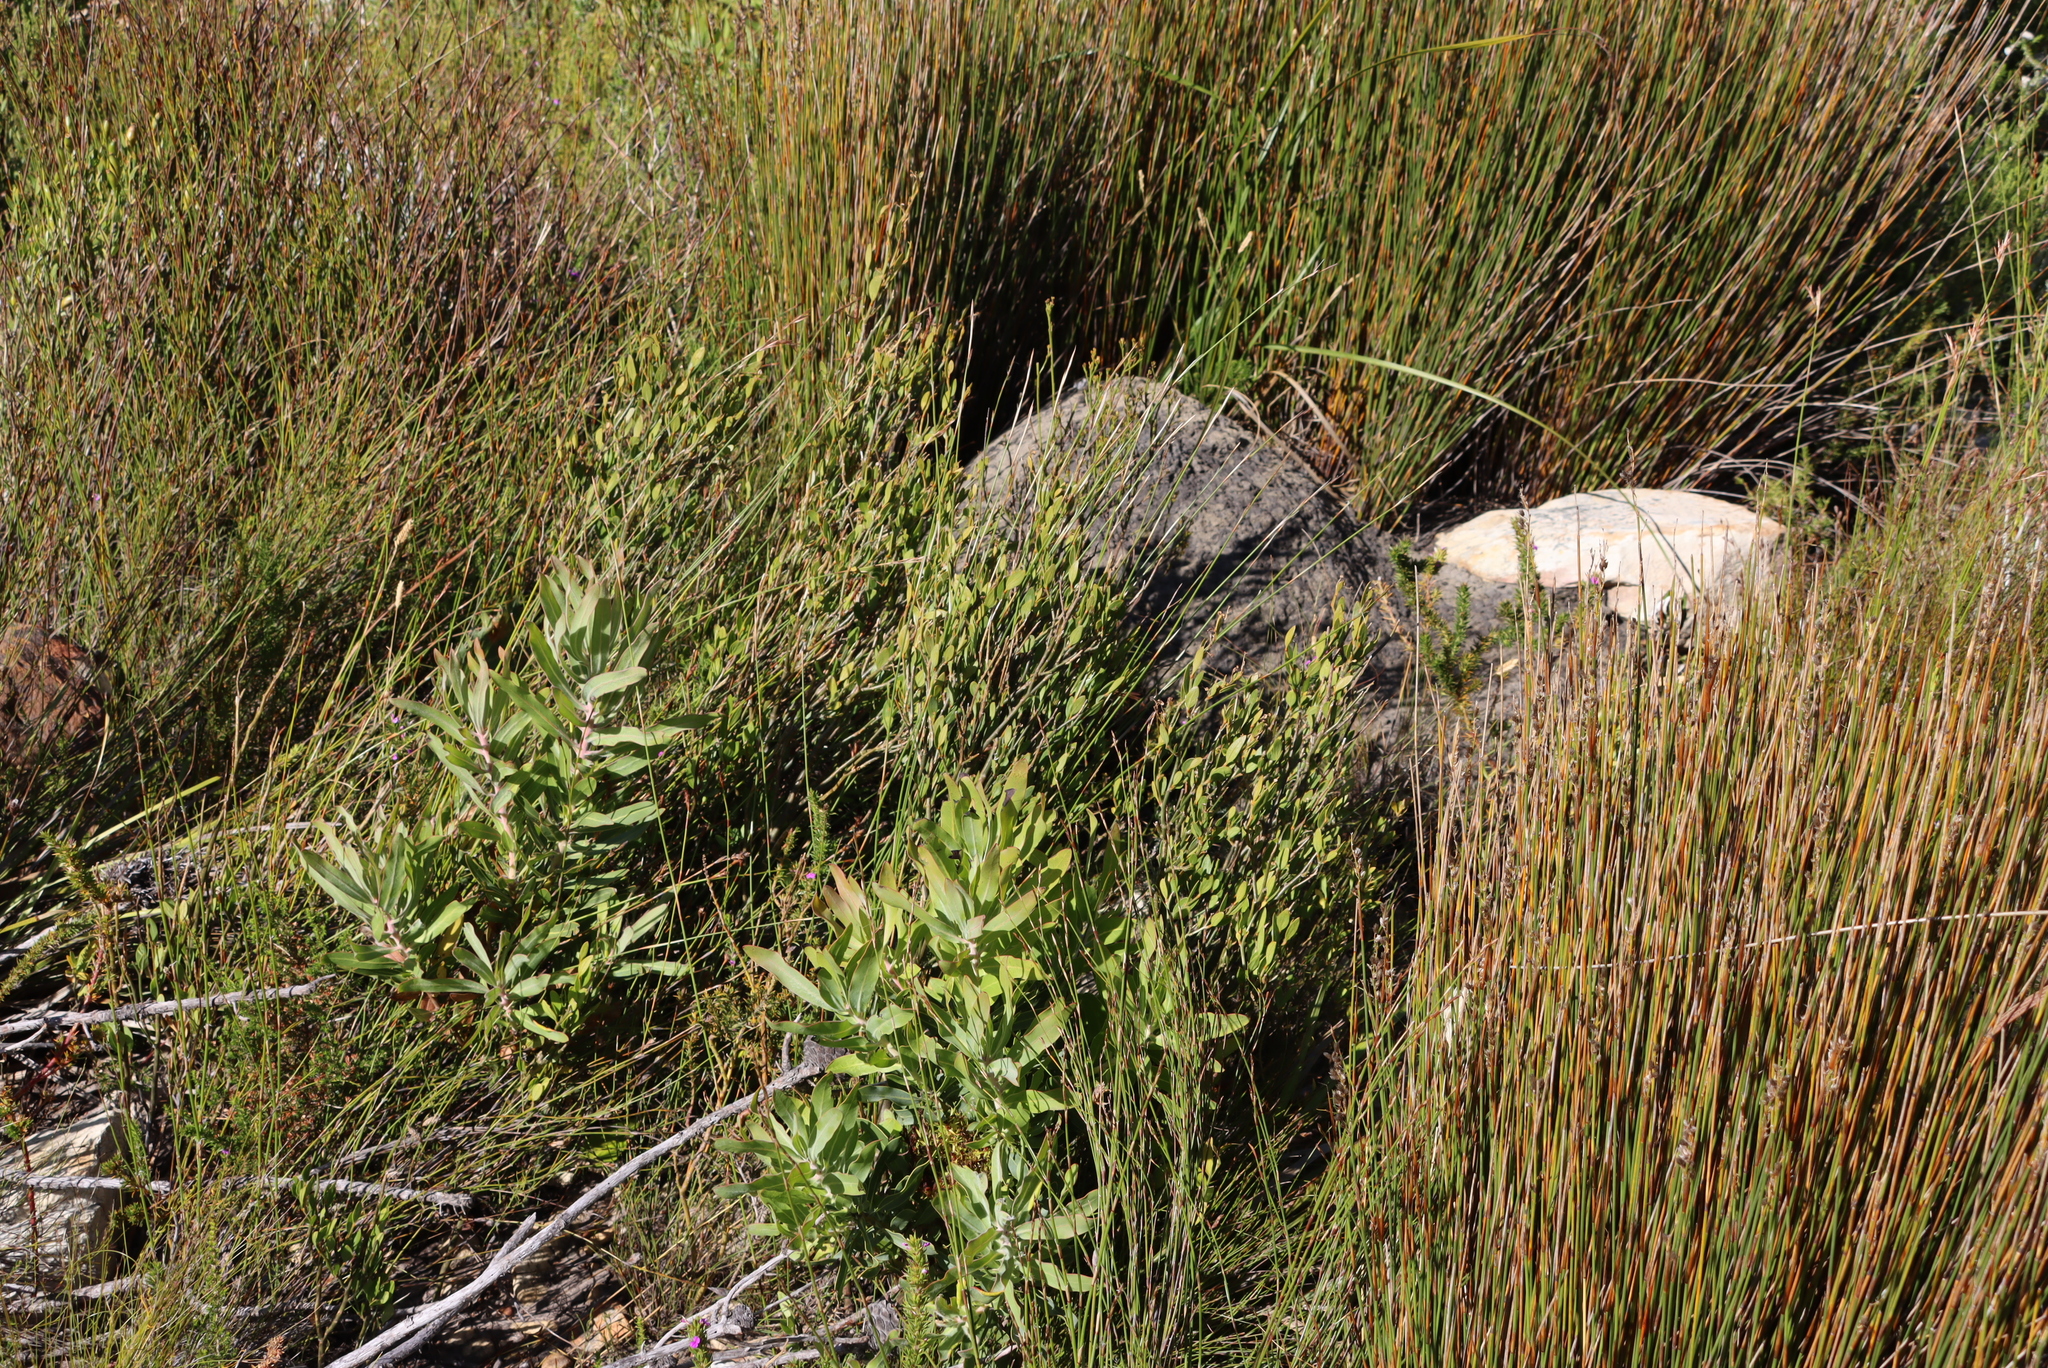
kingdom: Animalia
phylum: Arthropoda
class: Insecta
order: Blattodea
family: Termitidae
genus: Amitermes
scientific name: Amitermes hastatus
